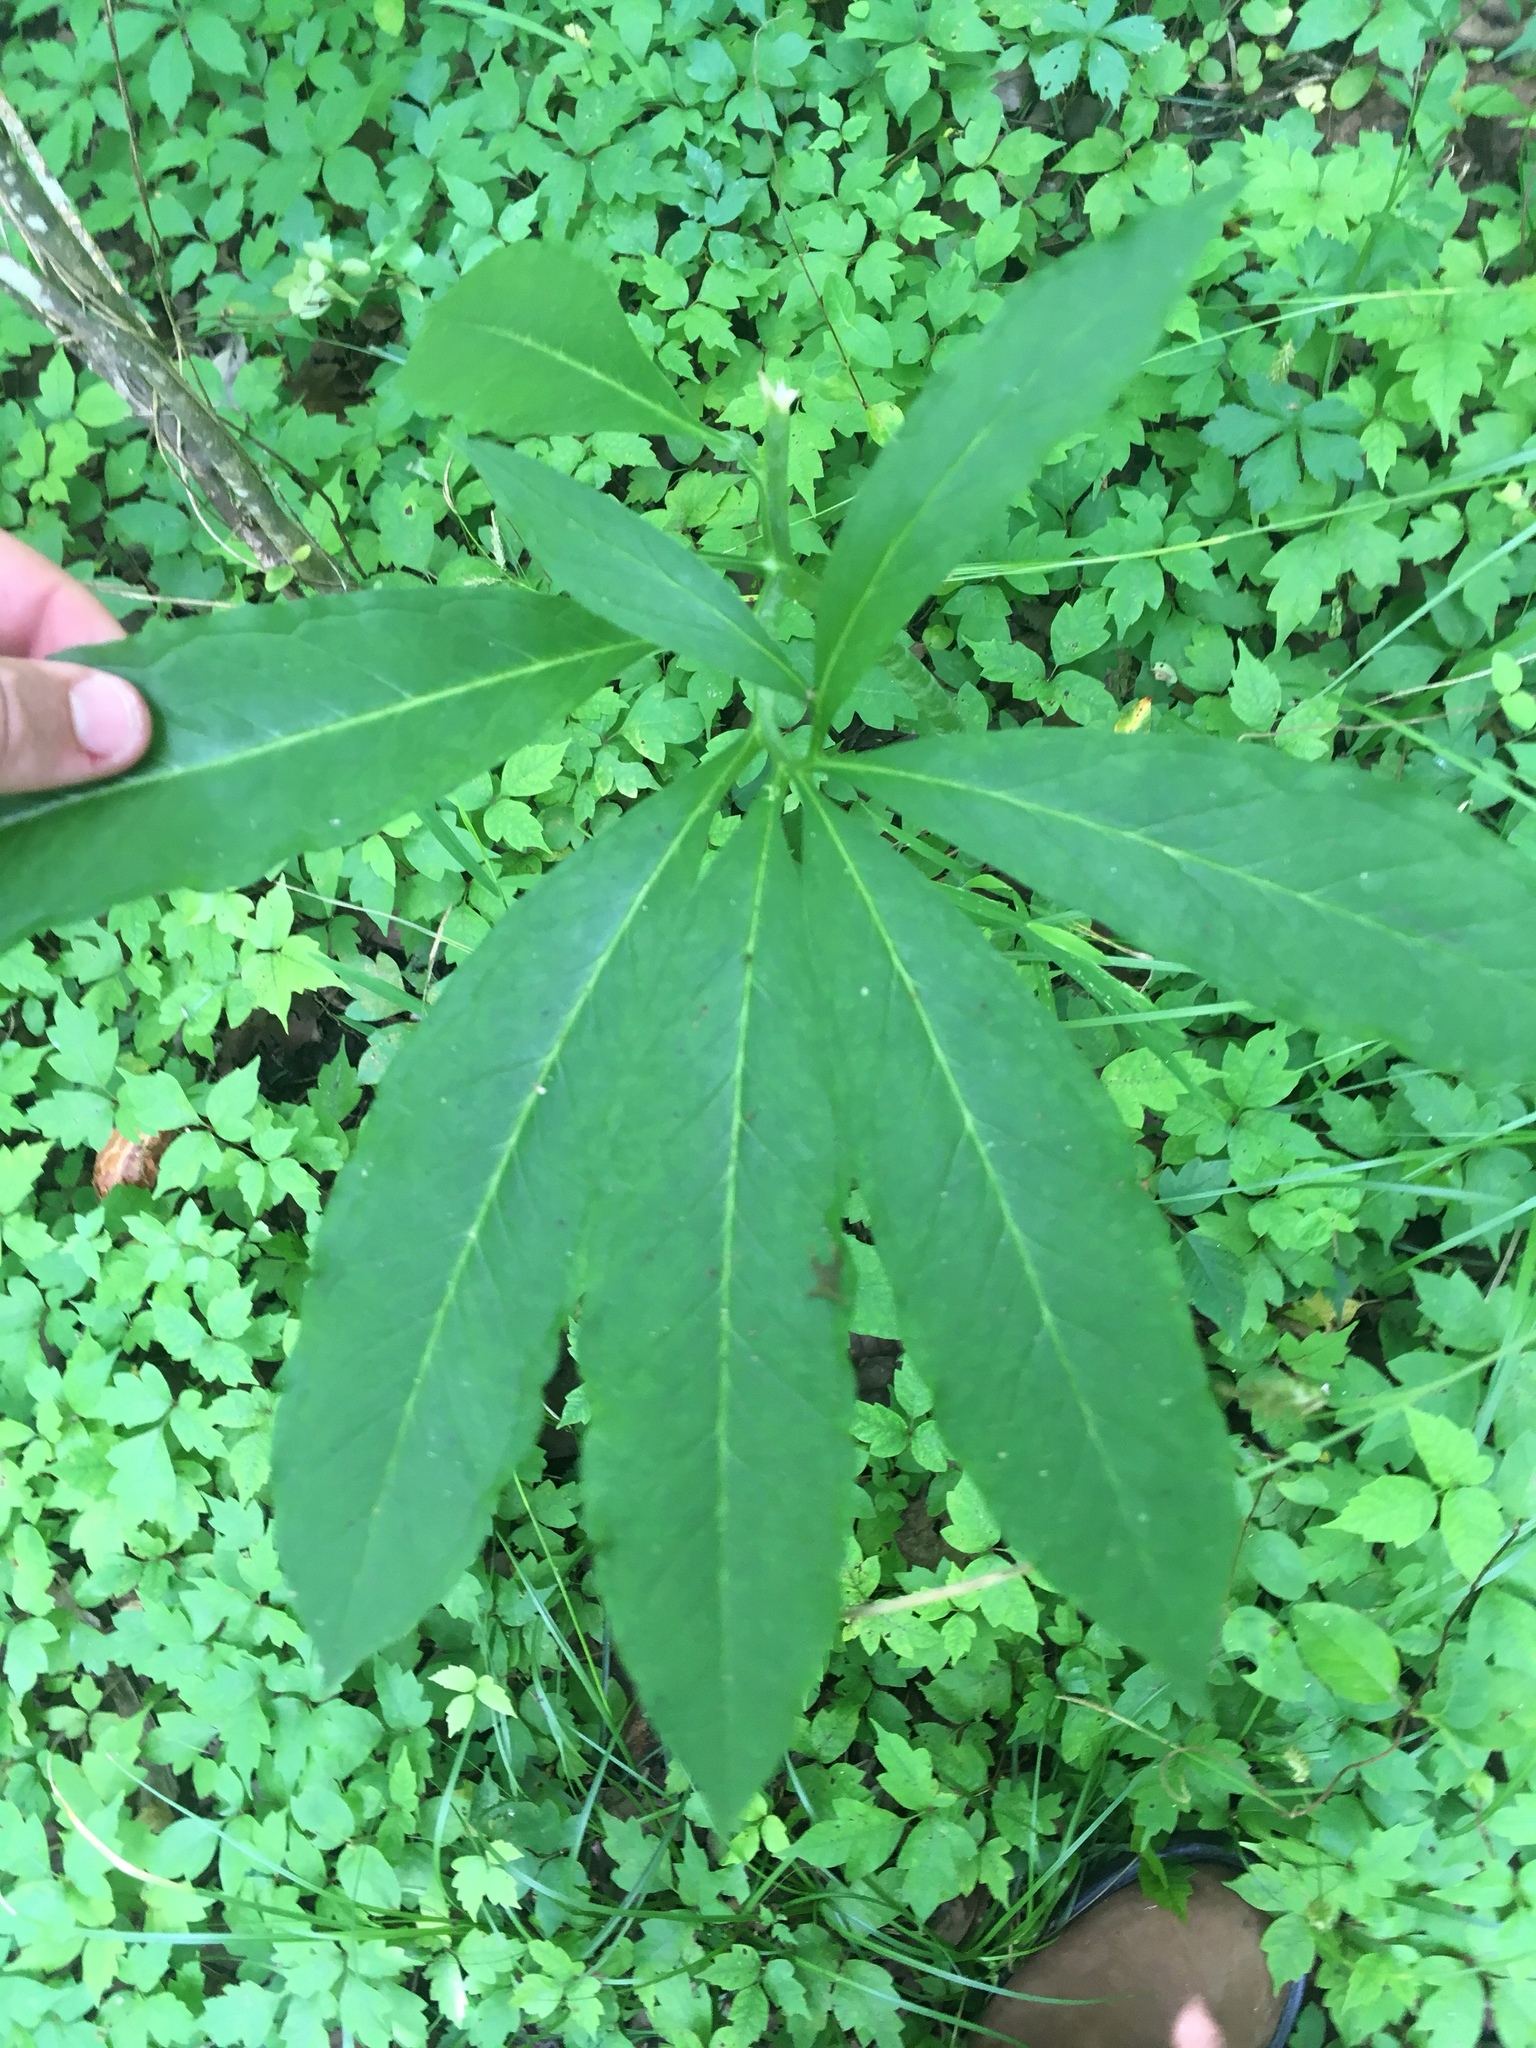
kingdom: Plantae
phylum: Tracheophyta
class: Liliopsida
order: Alismatales
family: Araceae
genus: Arisaema
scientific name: Arisaema dracontium
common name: Dragon-arum
